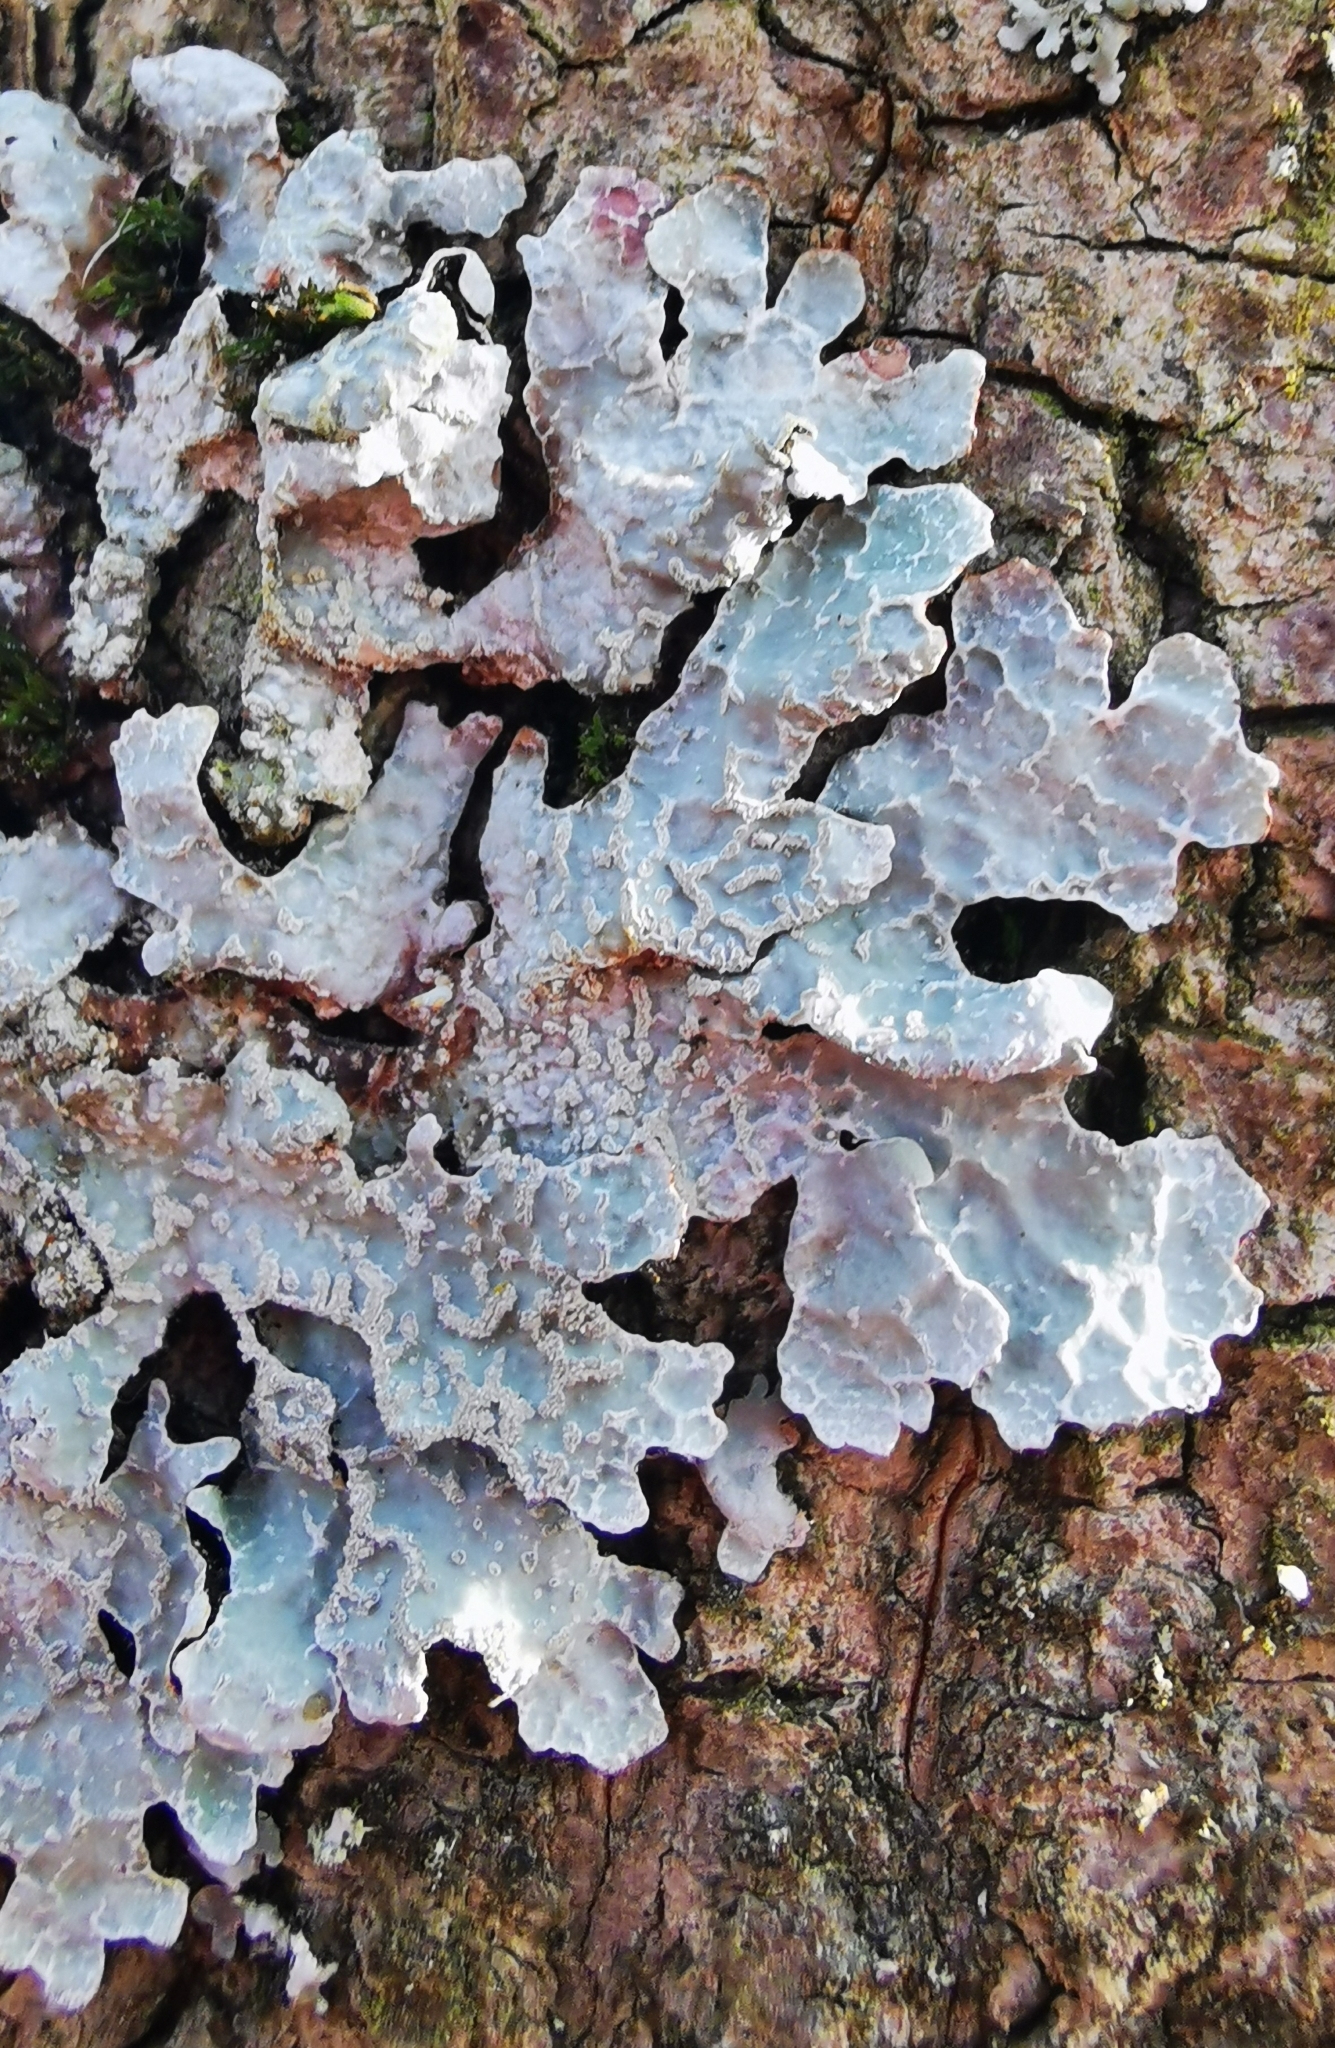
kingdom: Fungi
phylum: Ascomycota
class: Lecanoromycetes
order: Lecanorales
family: Parmeliaceae
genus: Parmelia
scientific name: Parmelia sulcata
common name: Netted shield lichen
